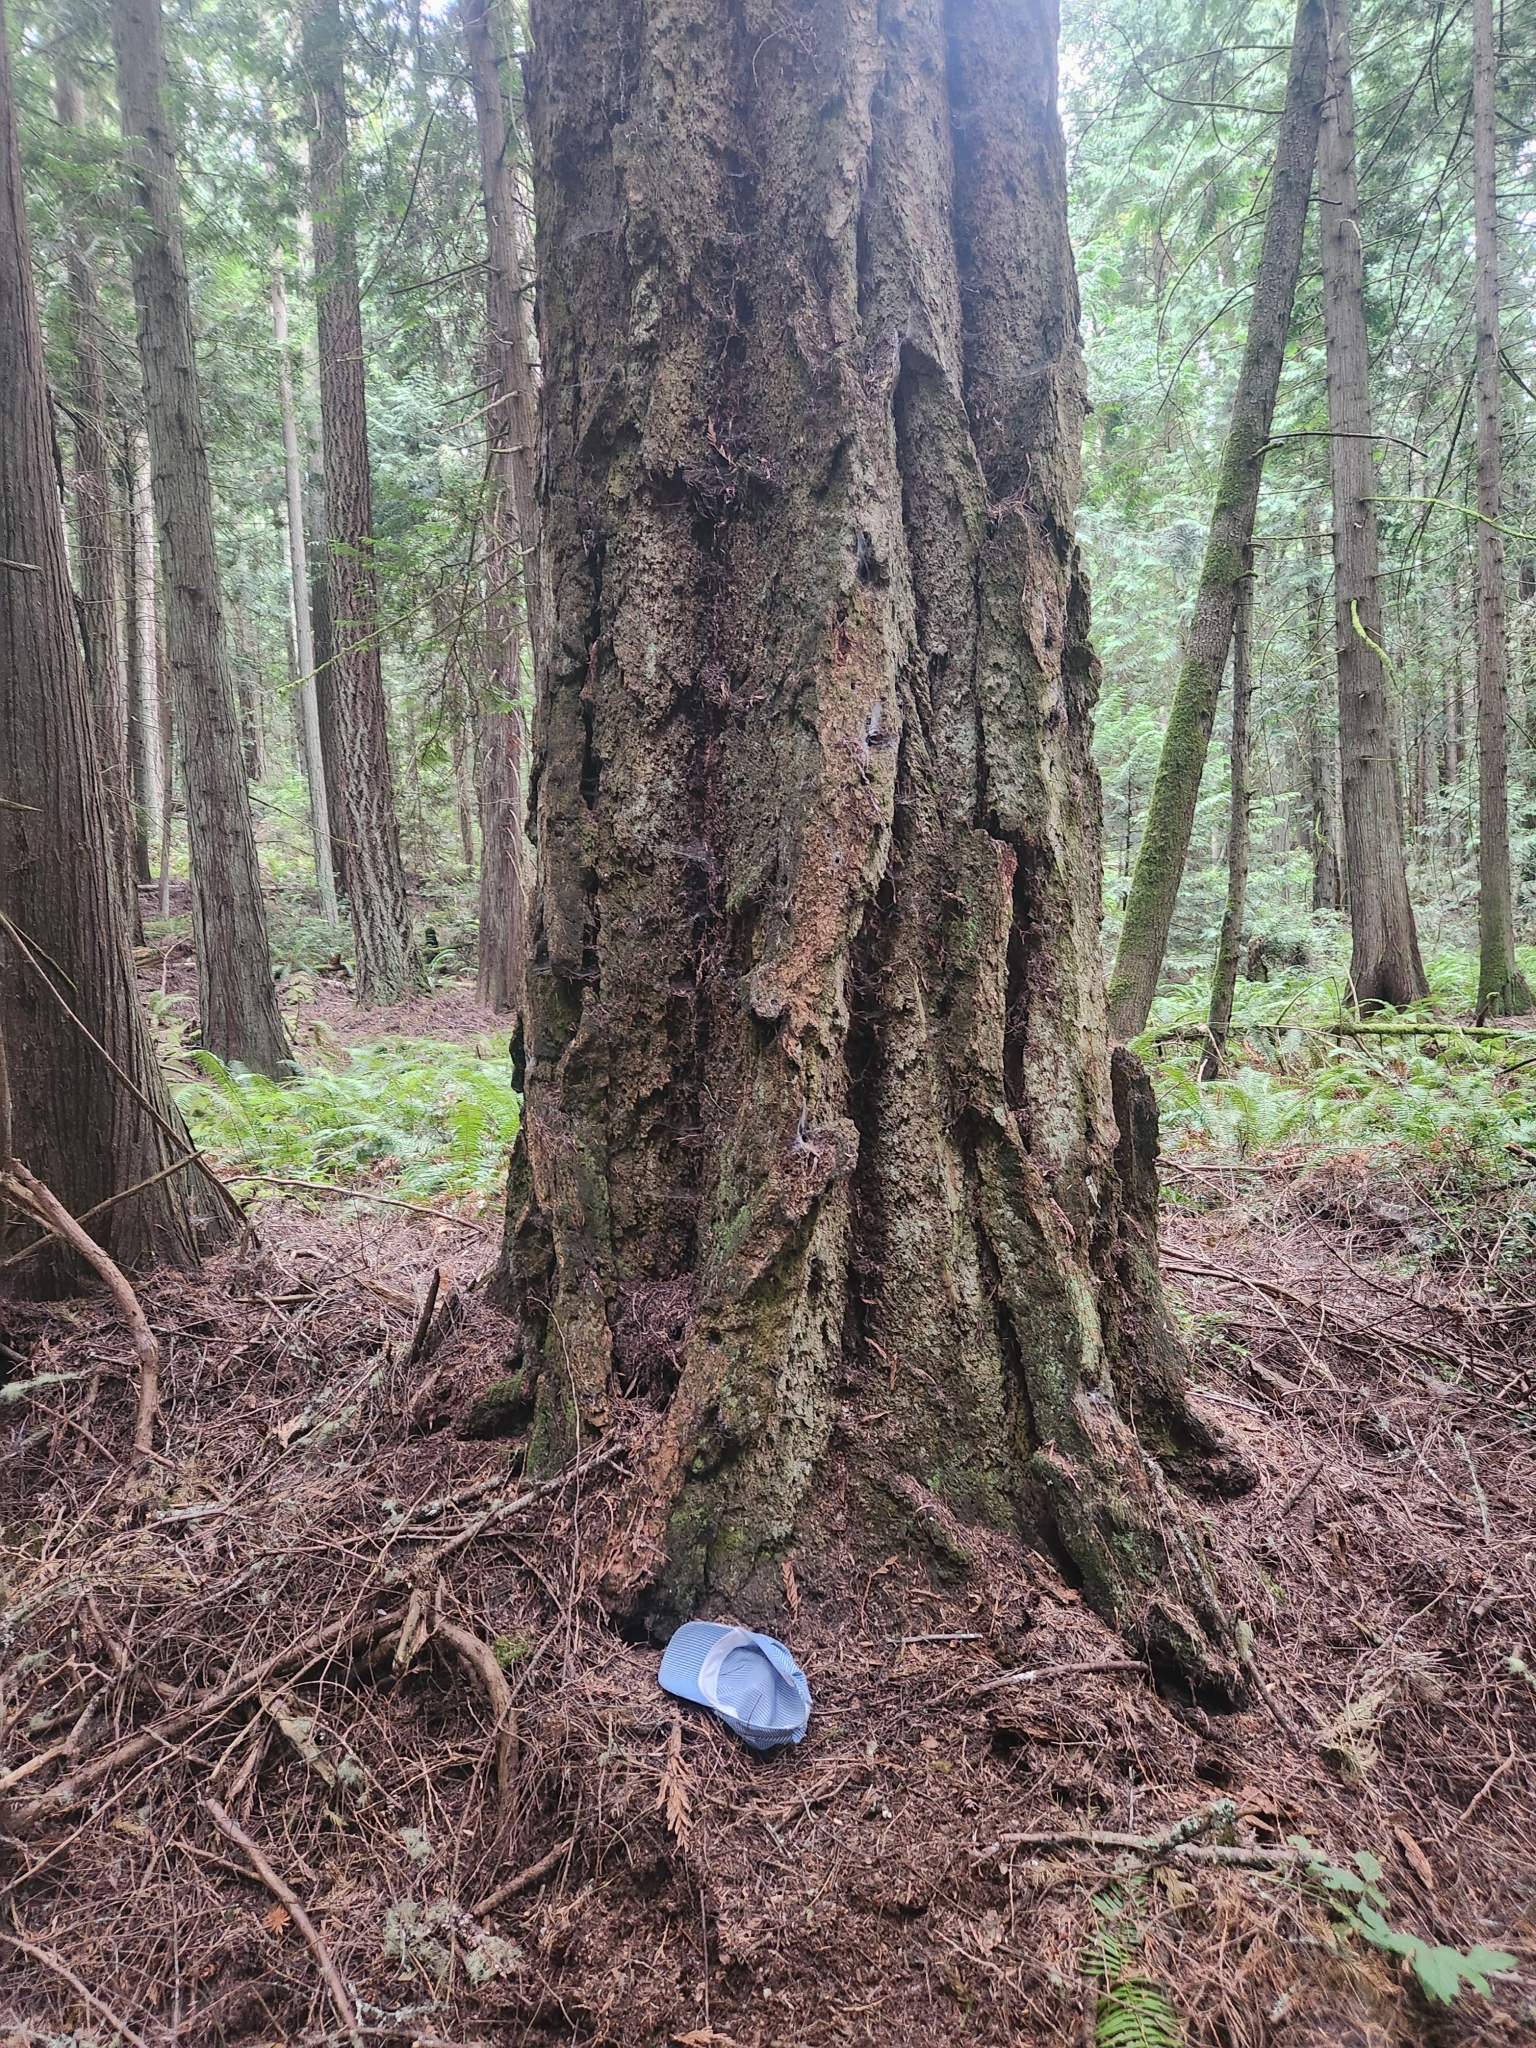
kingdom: Plantae
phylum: Tracheophyta
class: Pinopsida
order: Pinales
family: Pinaceae
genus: Pseudotsuga
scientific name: Pseudotsuga menziesii
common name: Douglas fir
